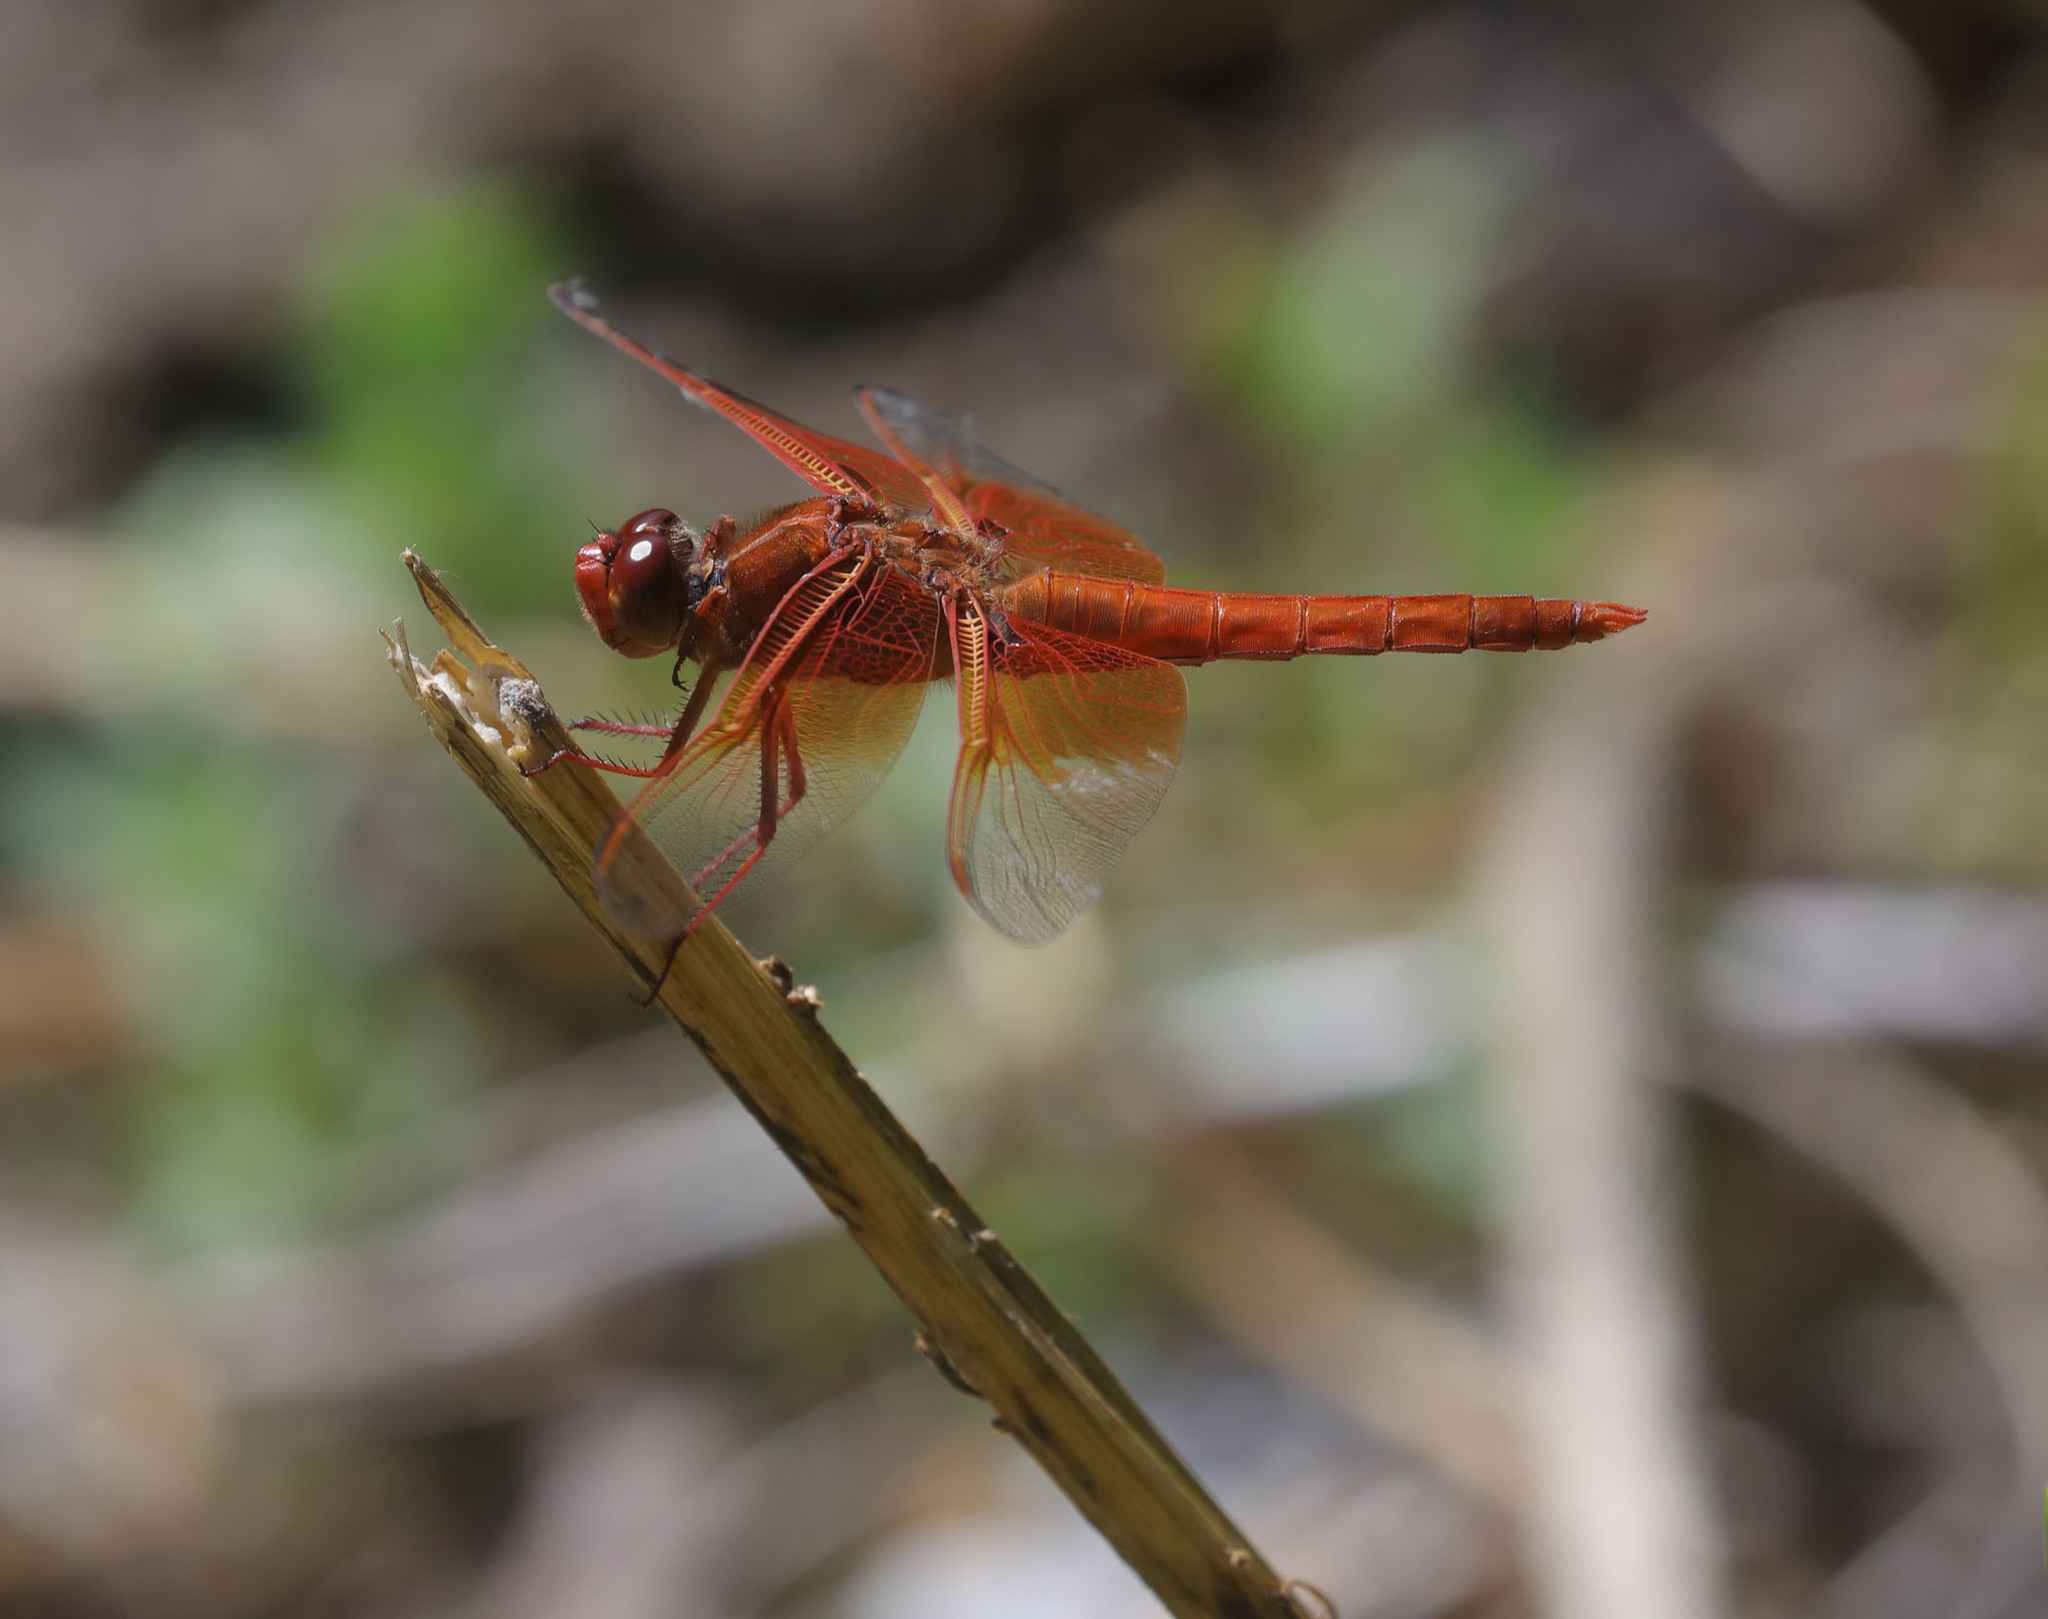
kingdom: Animalia
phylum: Arthropoda
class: Insecta
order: Odonata
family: Libellulidae
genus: Libellula
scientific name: Libellula saturata
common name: Flame skimmer
